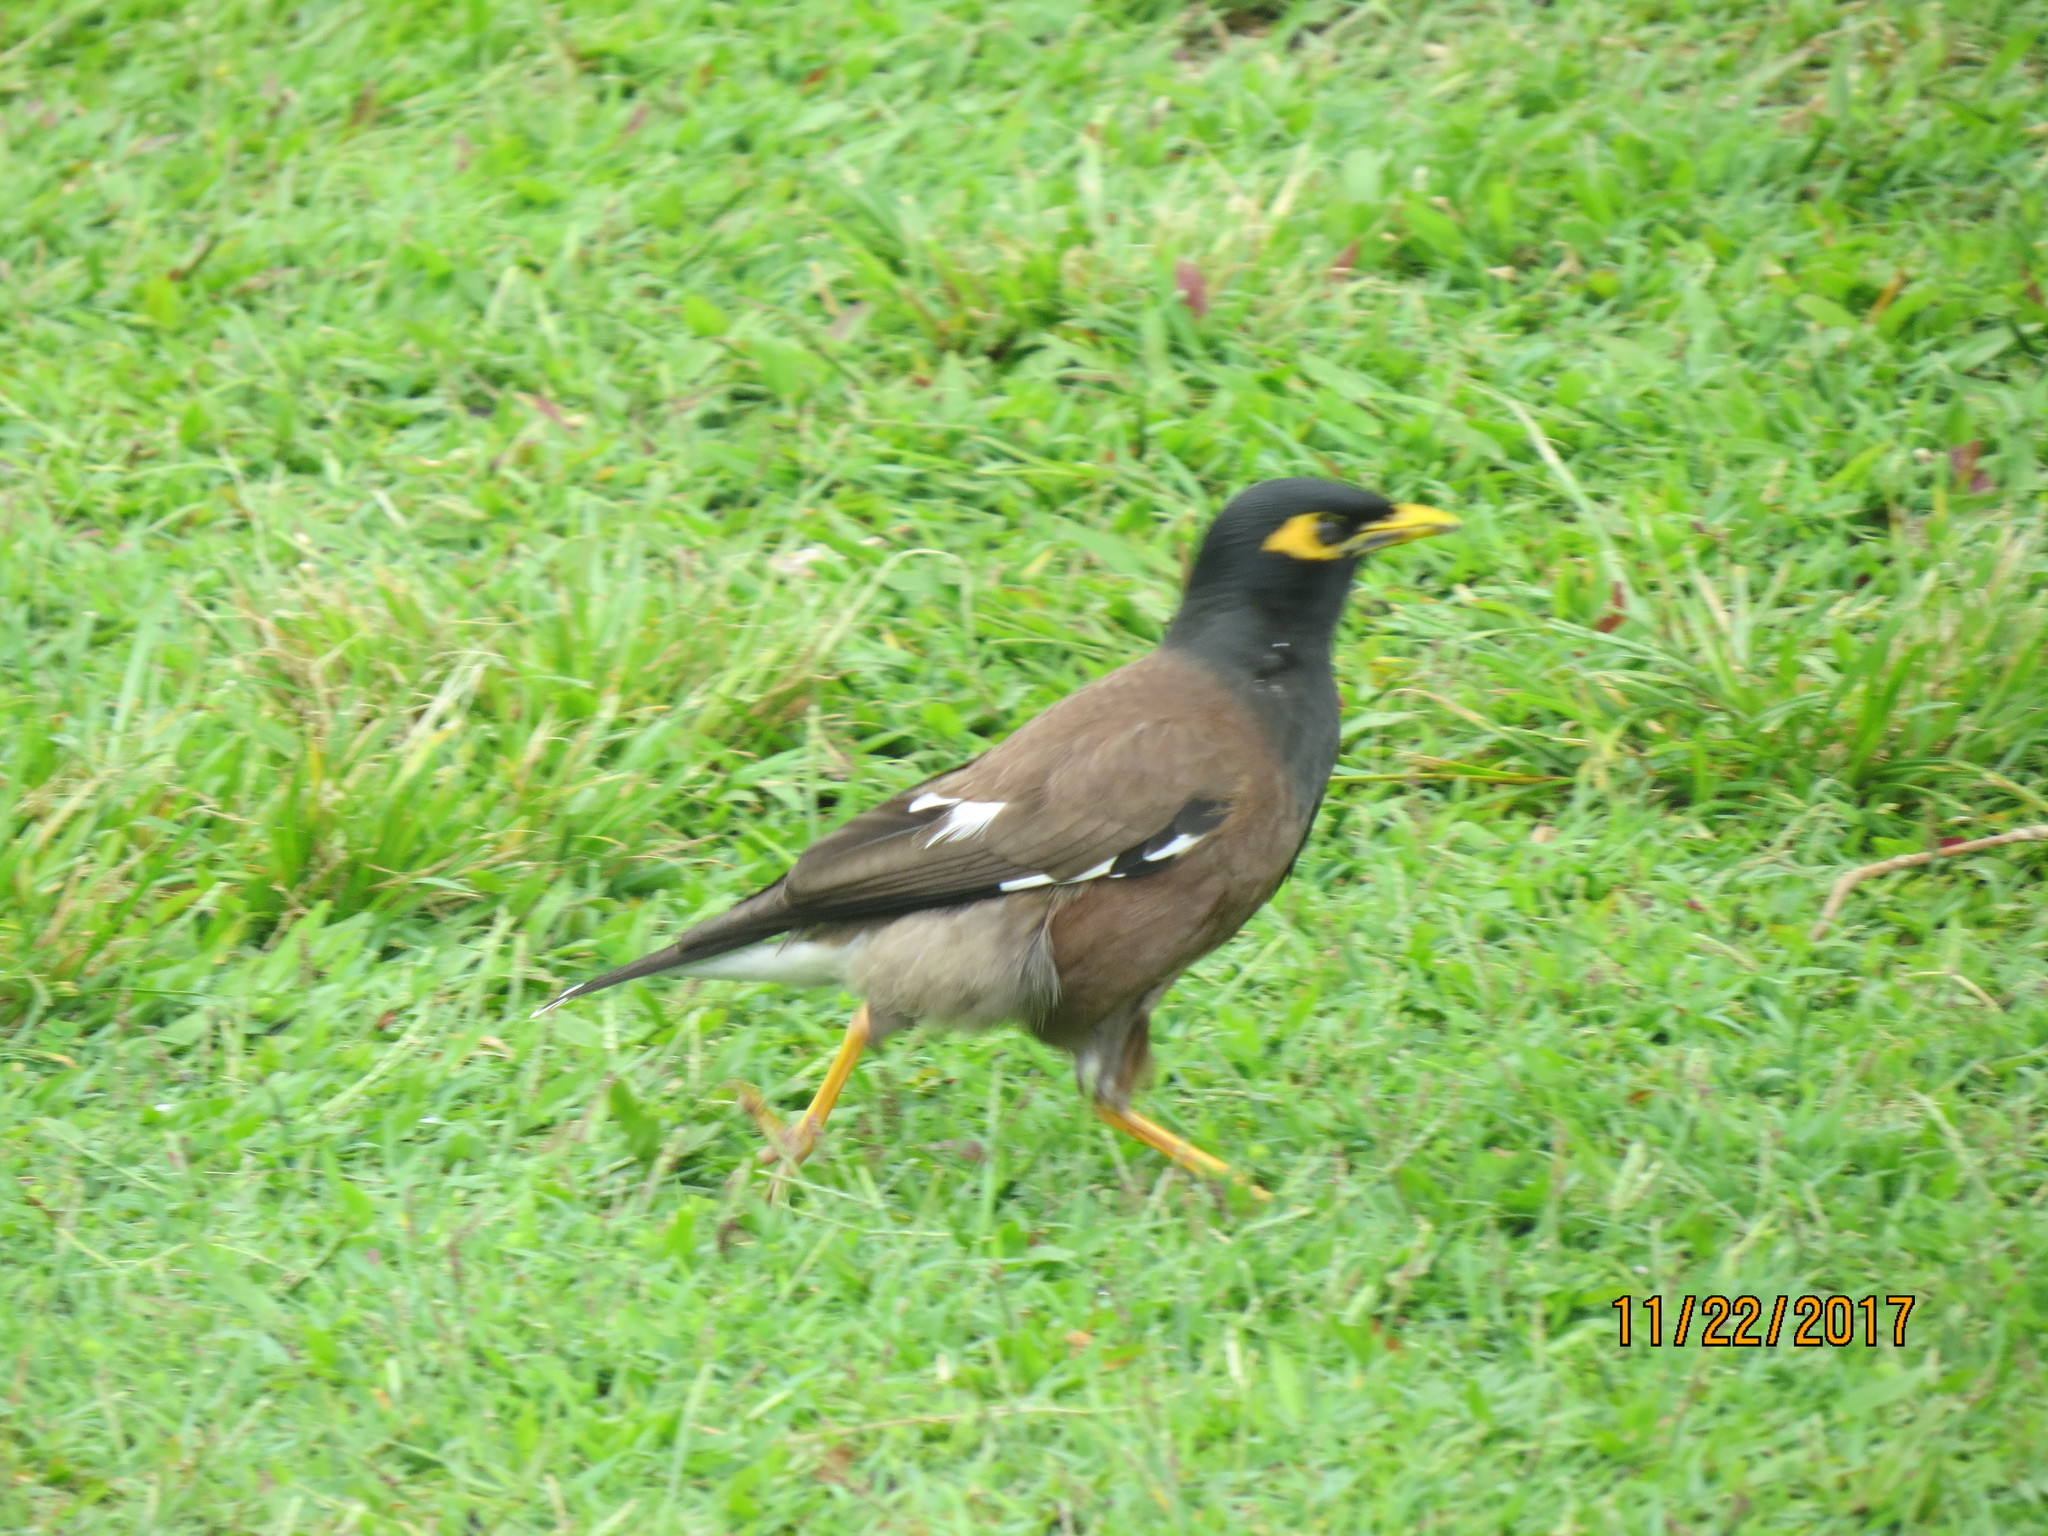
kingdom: Animalia
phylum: Chordata
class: Aves
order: Passeriformes
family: Sturnidae
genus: Acridotheres
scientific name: Acridotheres tristis
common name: Common myna
